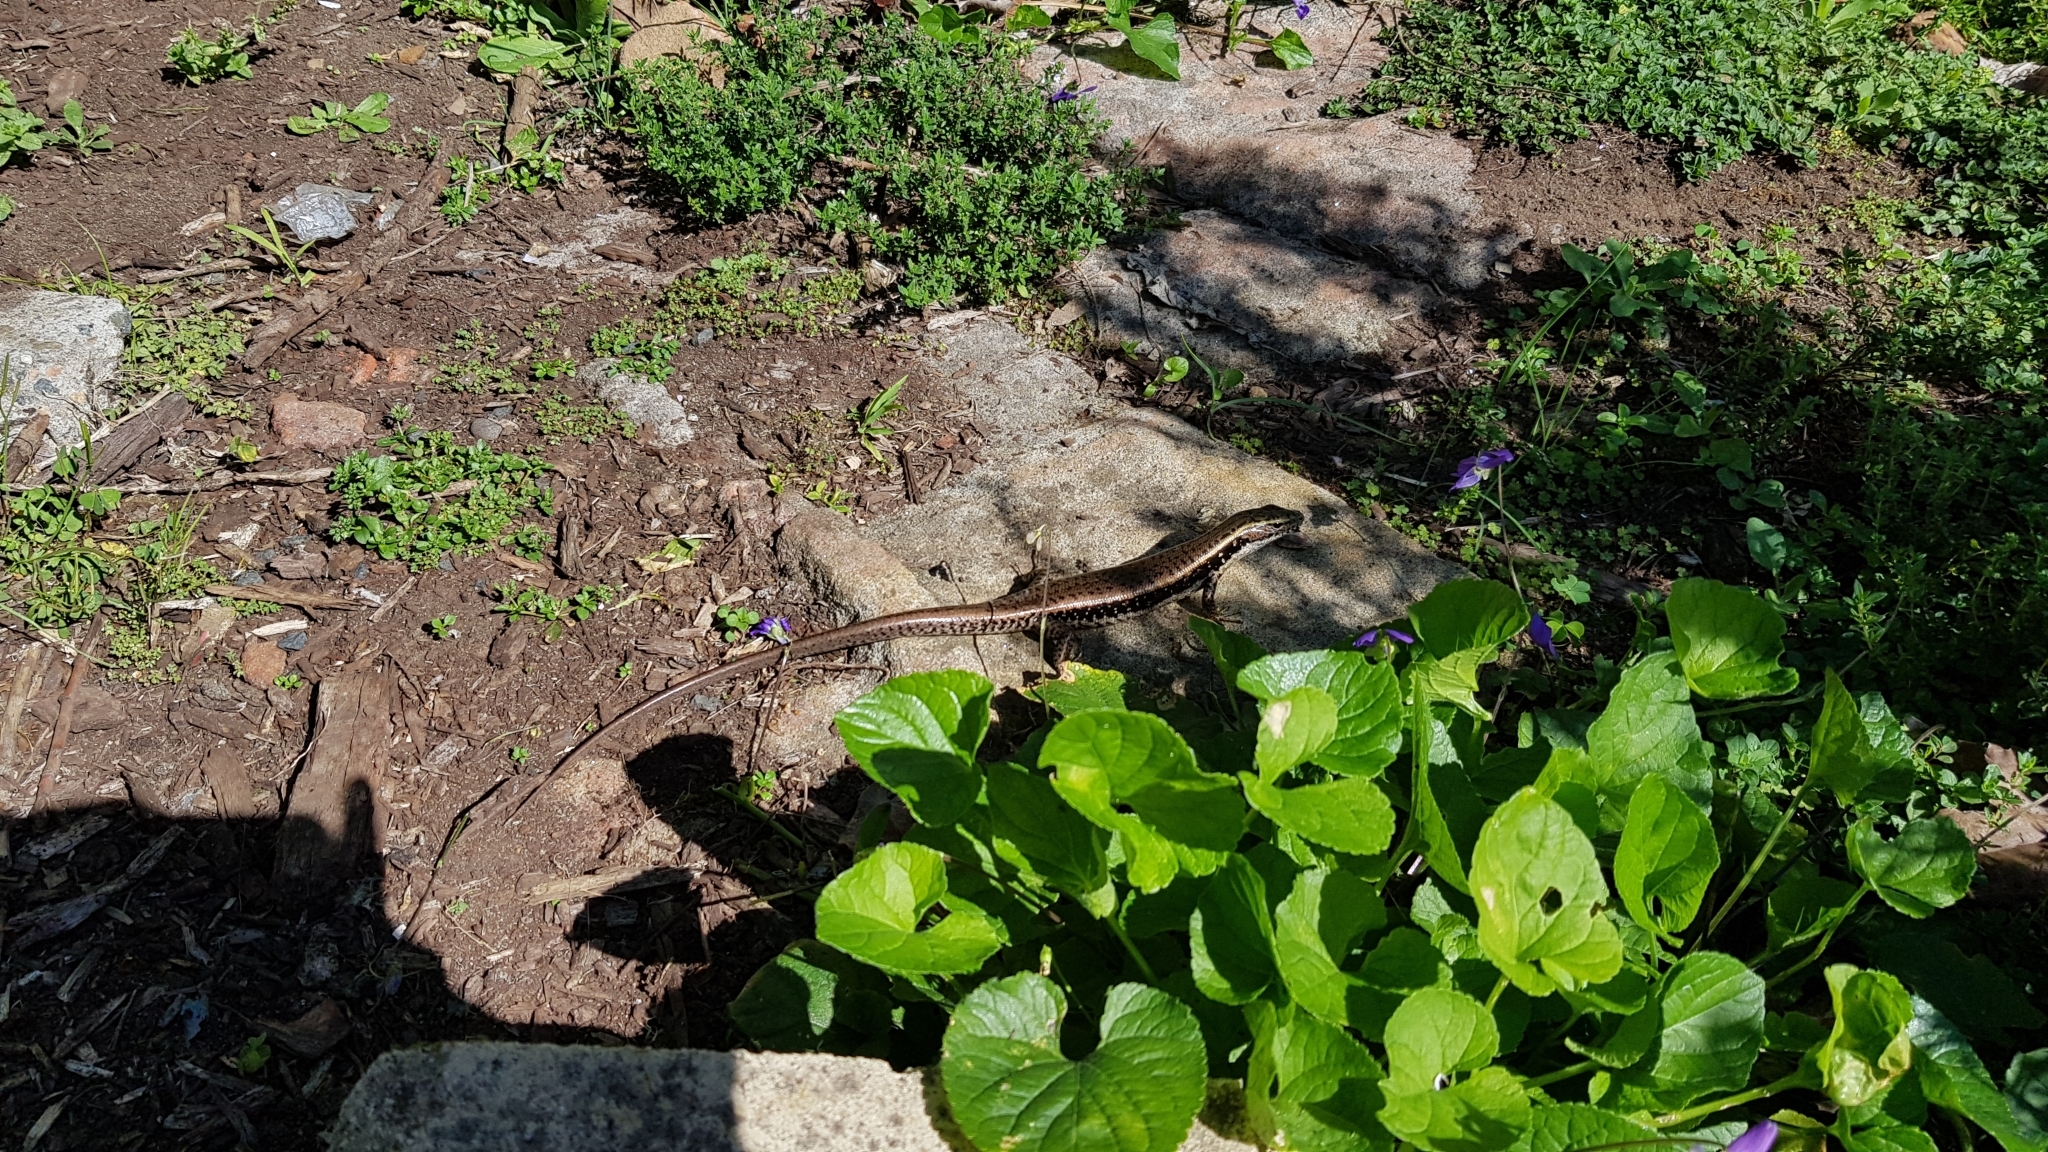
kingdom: Animalia
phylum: Chordata
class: Squamata
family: Scincidae
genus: Eulamprus
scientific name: Eulamprus quoyii
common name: Eastern water skink
